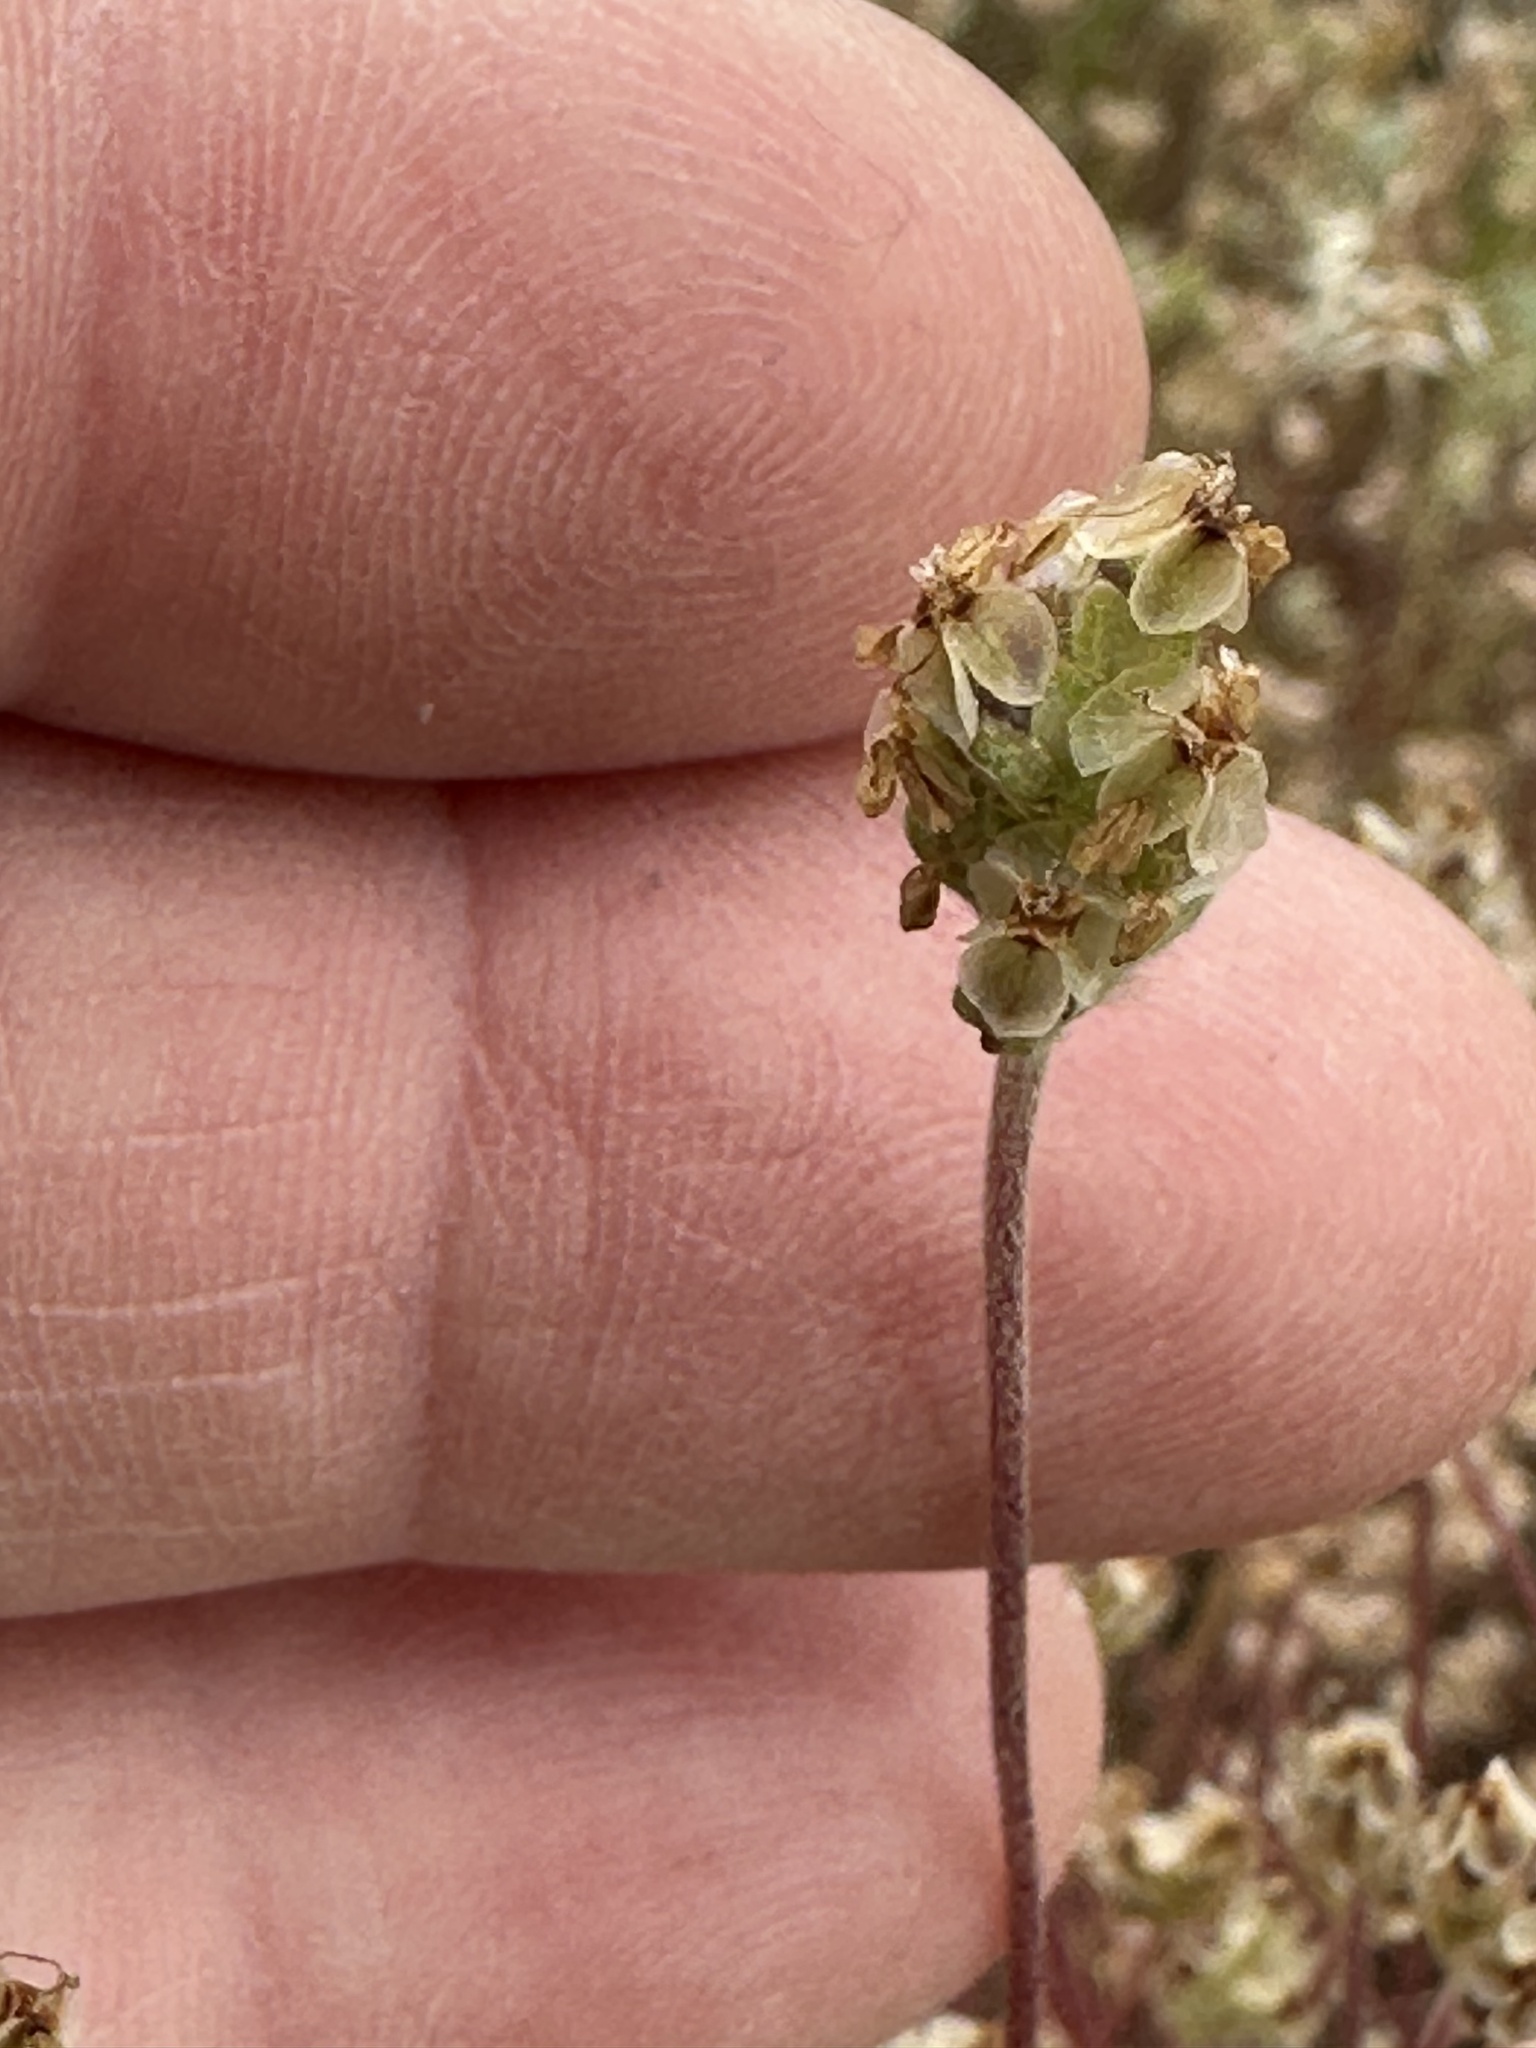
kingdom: Plantae
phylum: Tracheophyta
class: Magnoliopsida
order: Lamiales
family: Plantaginaceae
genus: Plantago
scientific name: Plantago erecta
